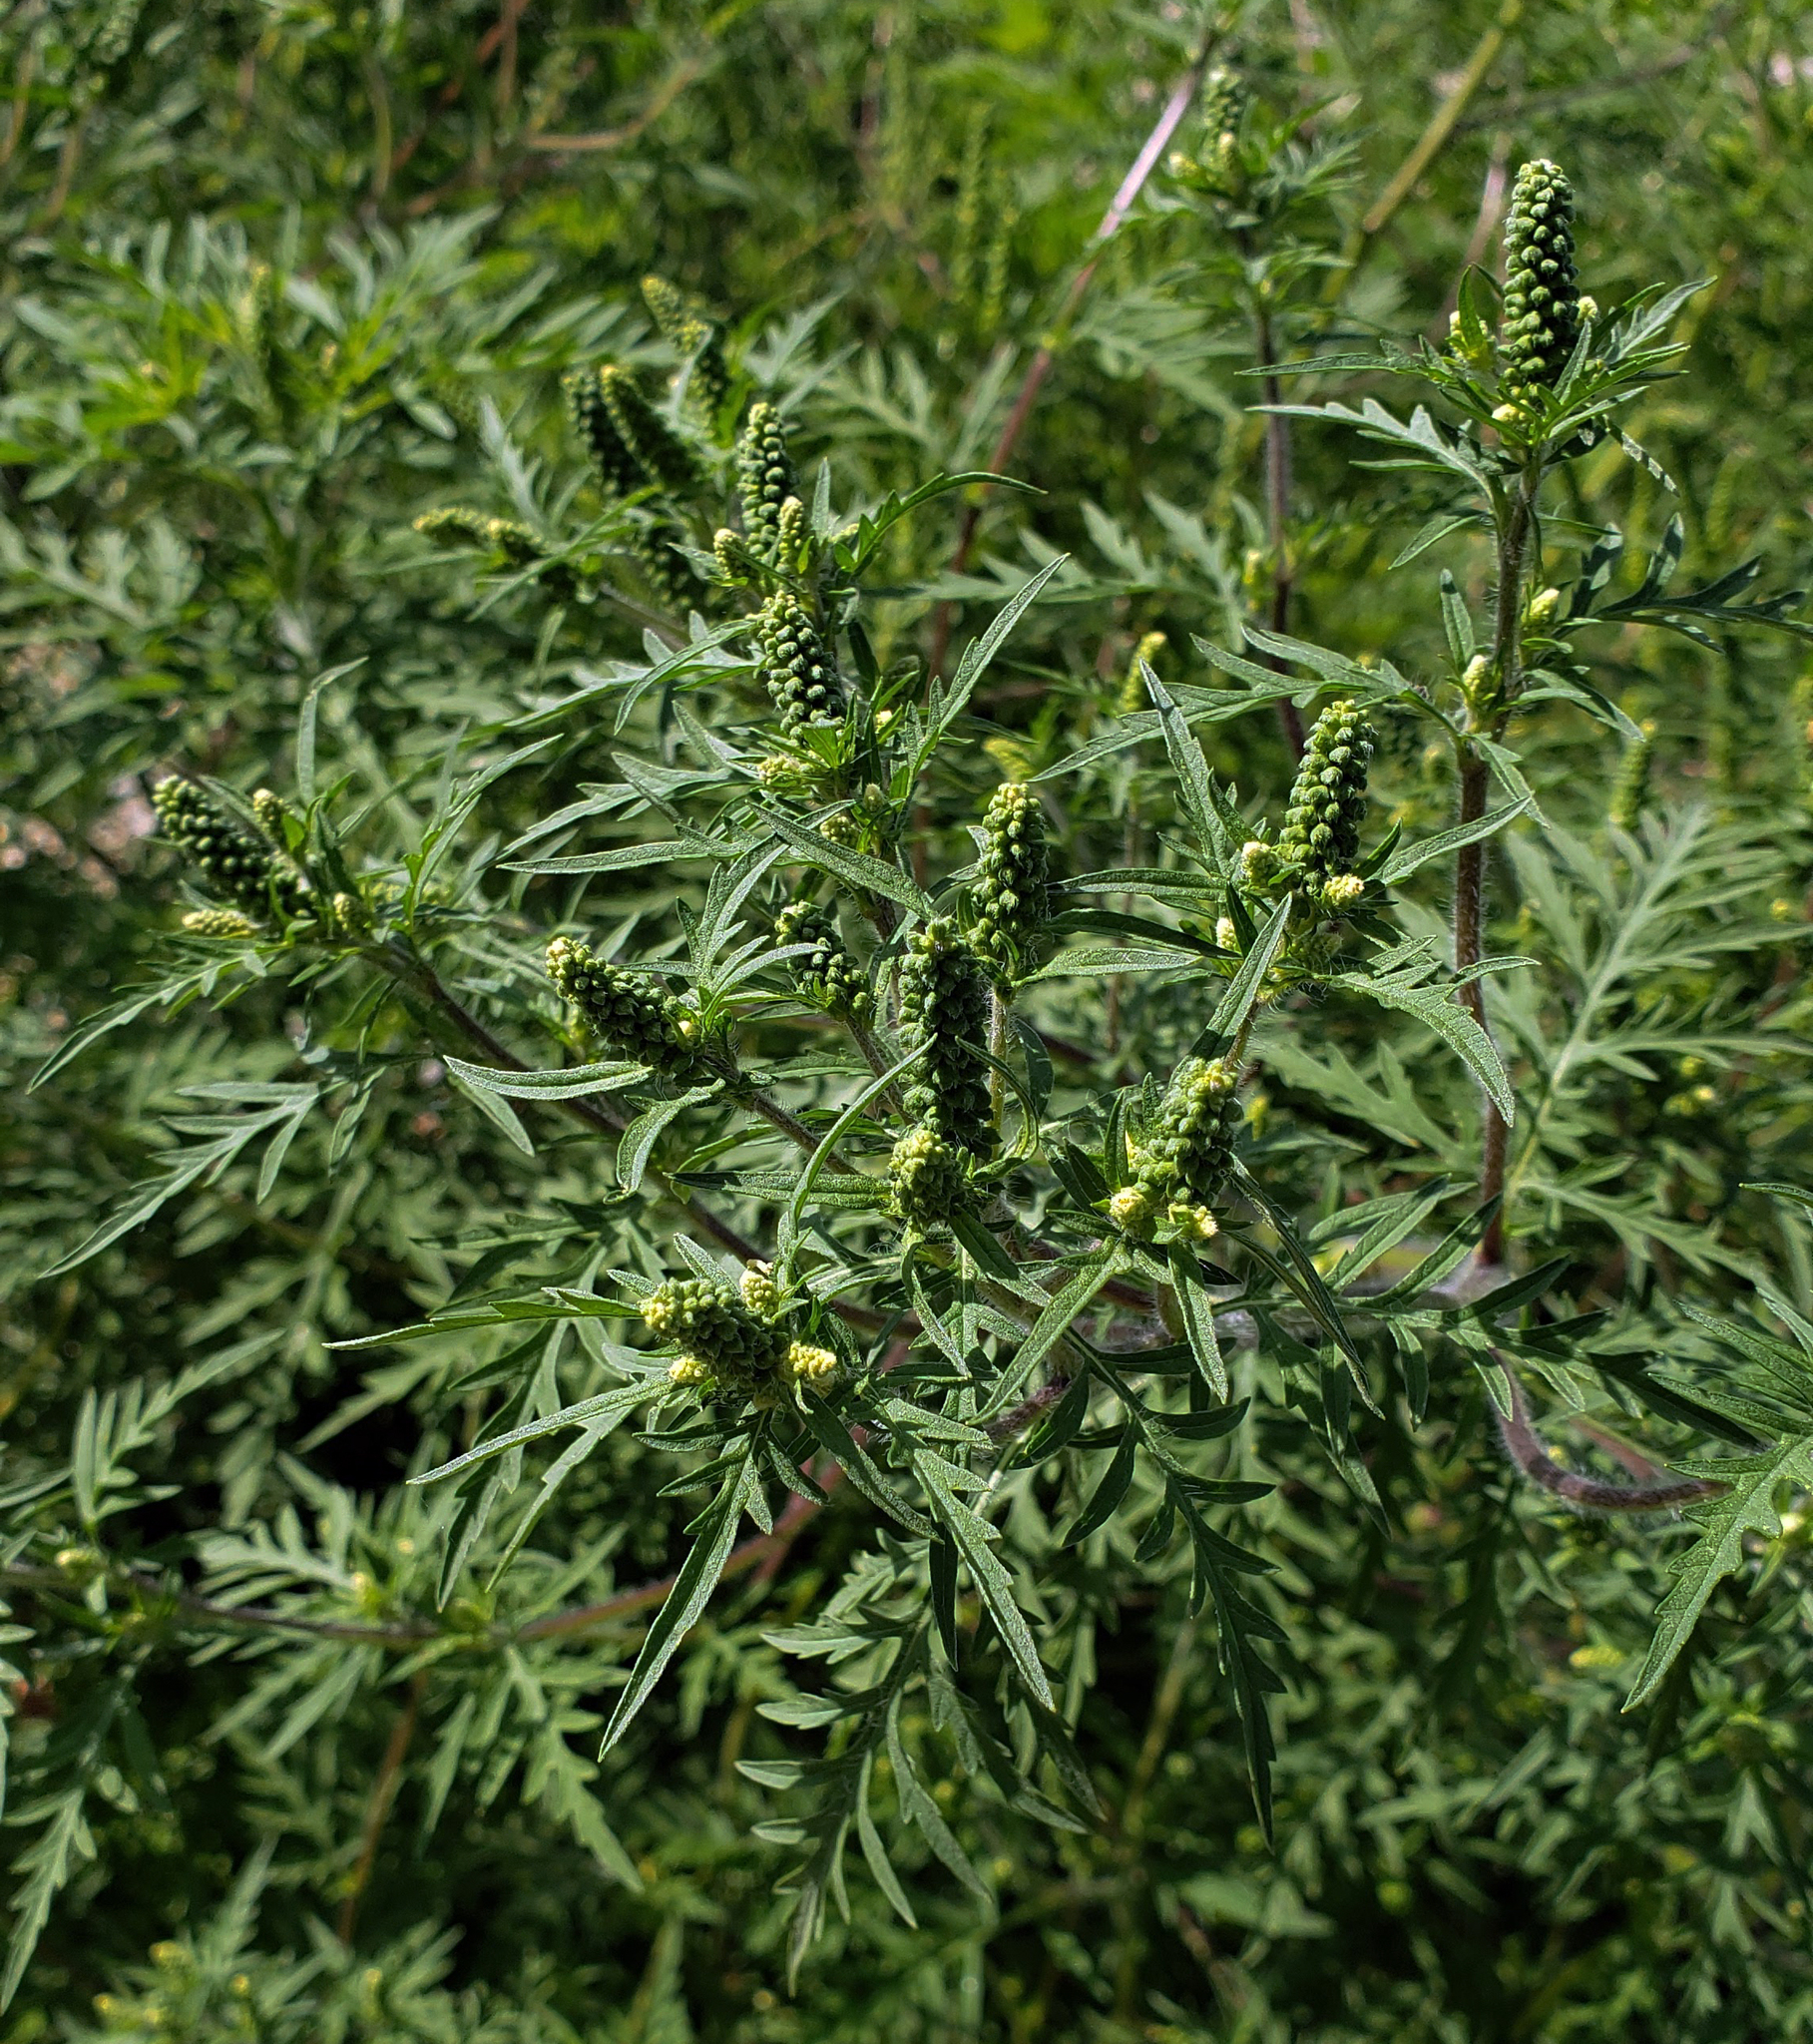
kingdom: Plantae
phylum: Tracheophyta
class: Magnoliopsida
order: Asterales
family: Asteraceae
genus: Ambrosia
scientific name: Ambrosia artemisiifolia
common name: Annual ragweed
